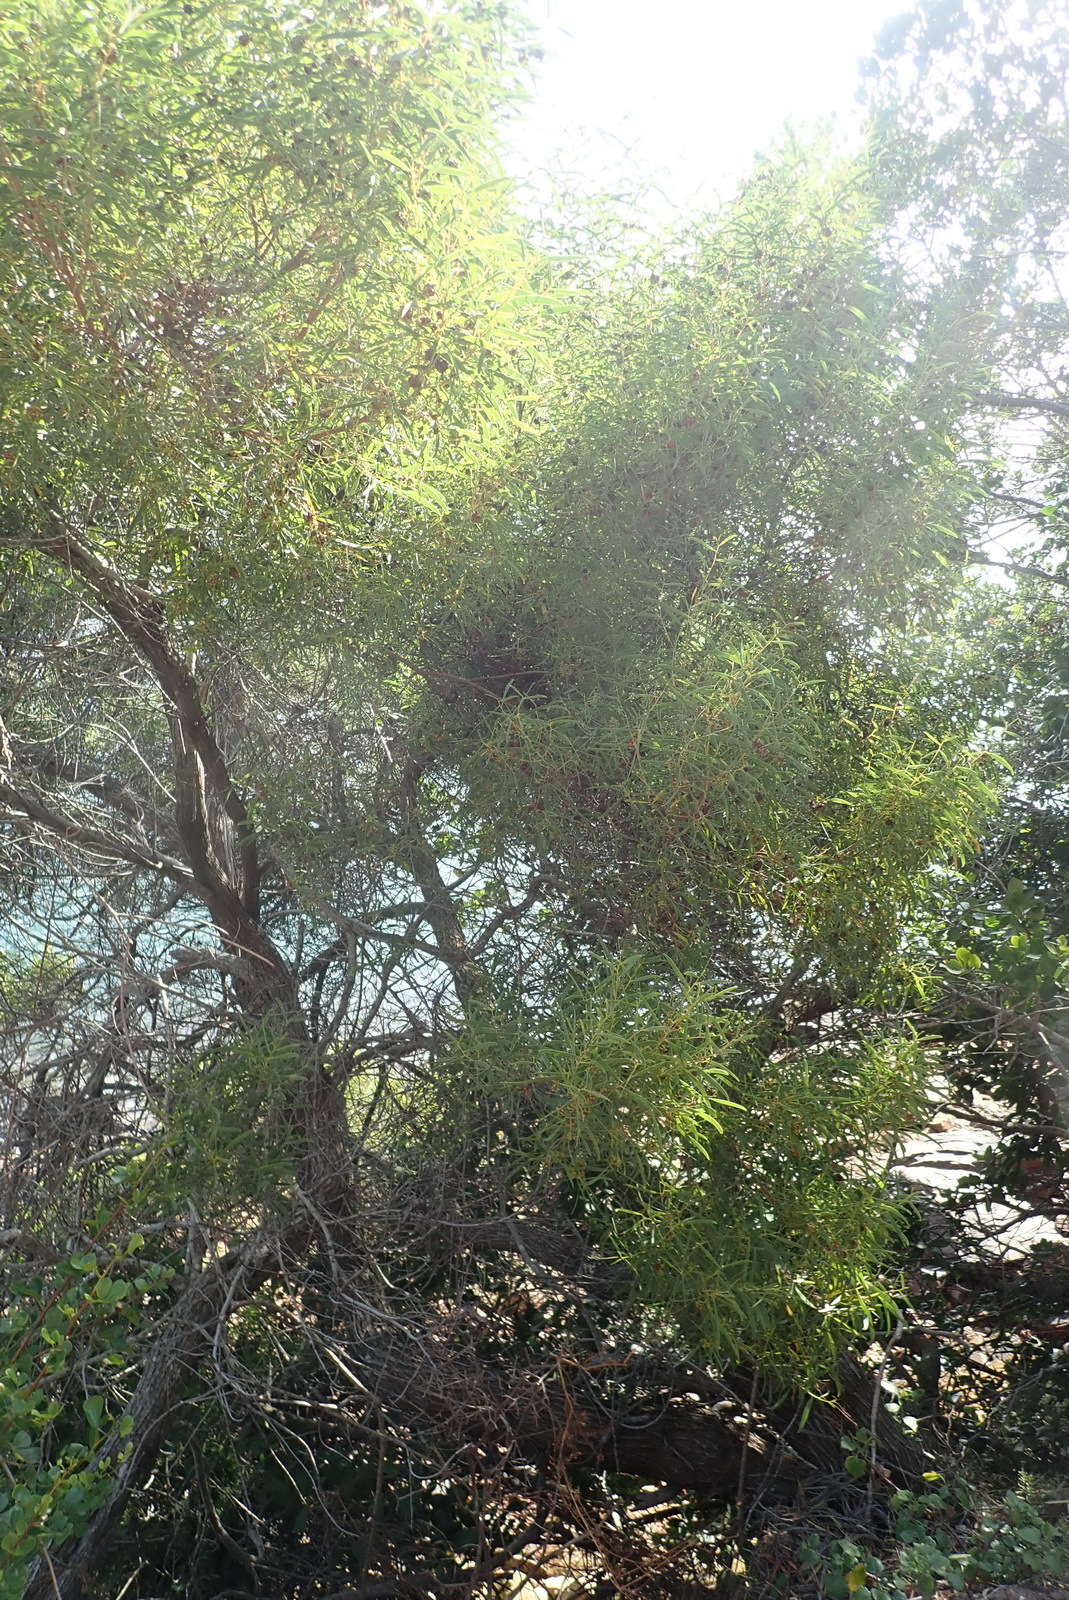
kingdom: Plantae
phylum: Tracheophyta
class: Magnoliopsida
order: Fabales
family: Fabaceae
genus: Acacia
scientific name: Acacia cyclops
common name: Coastal wattle
